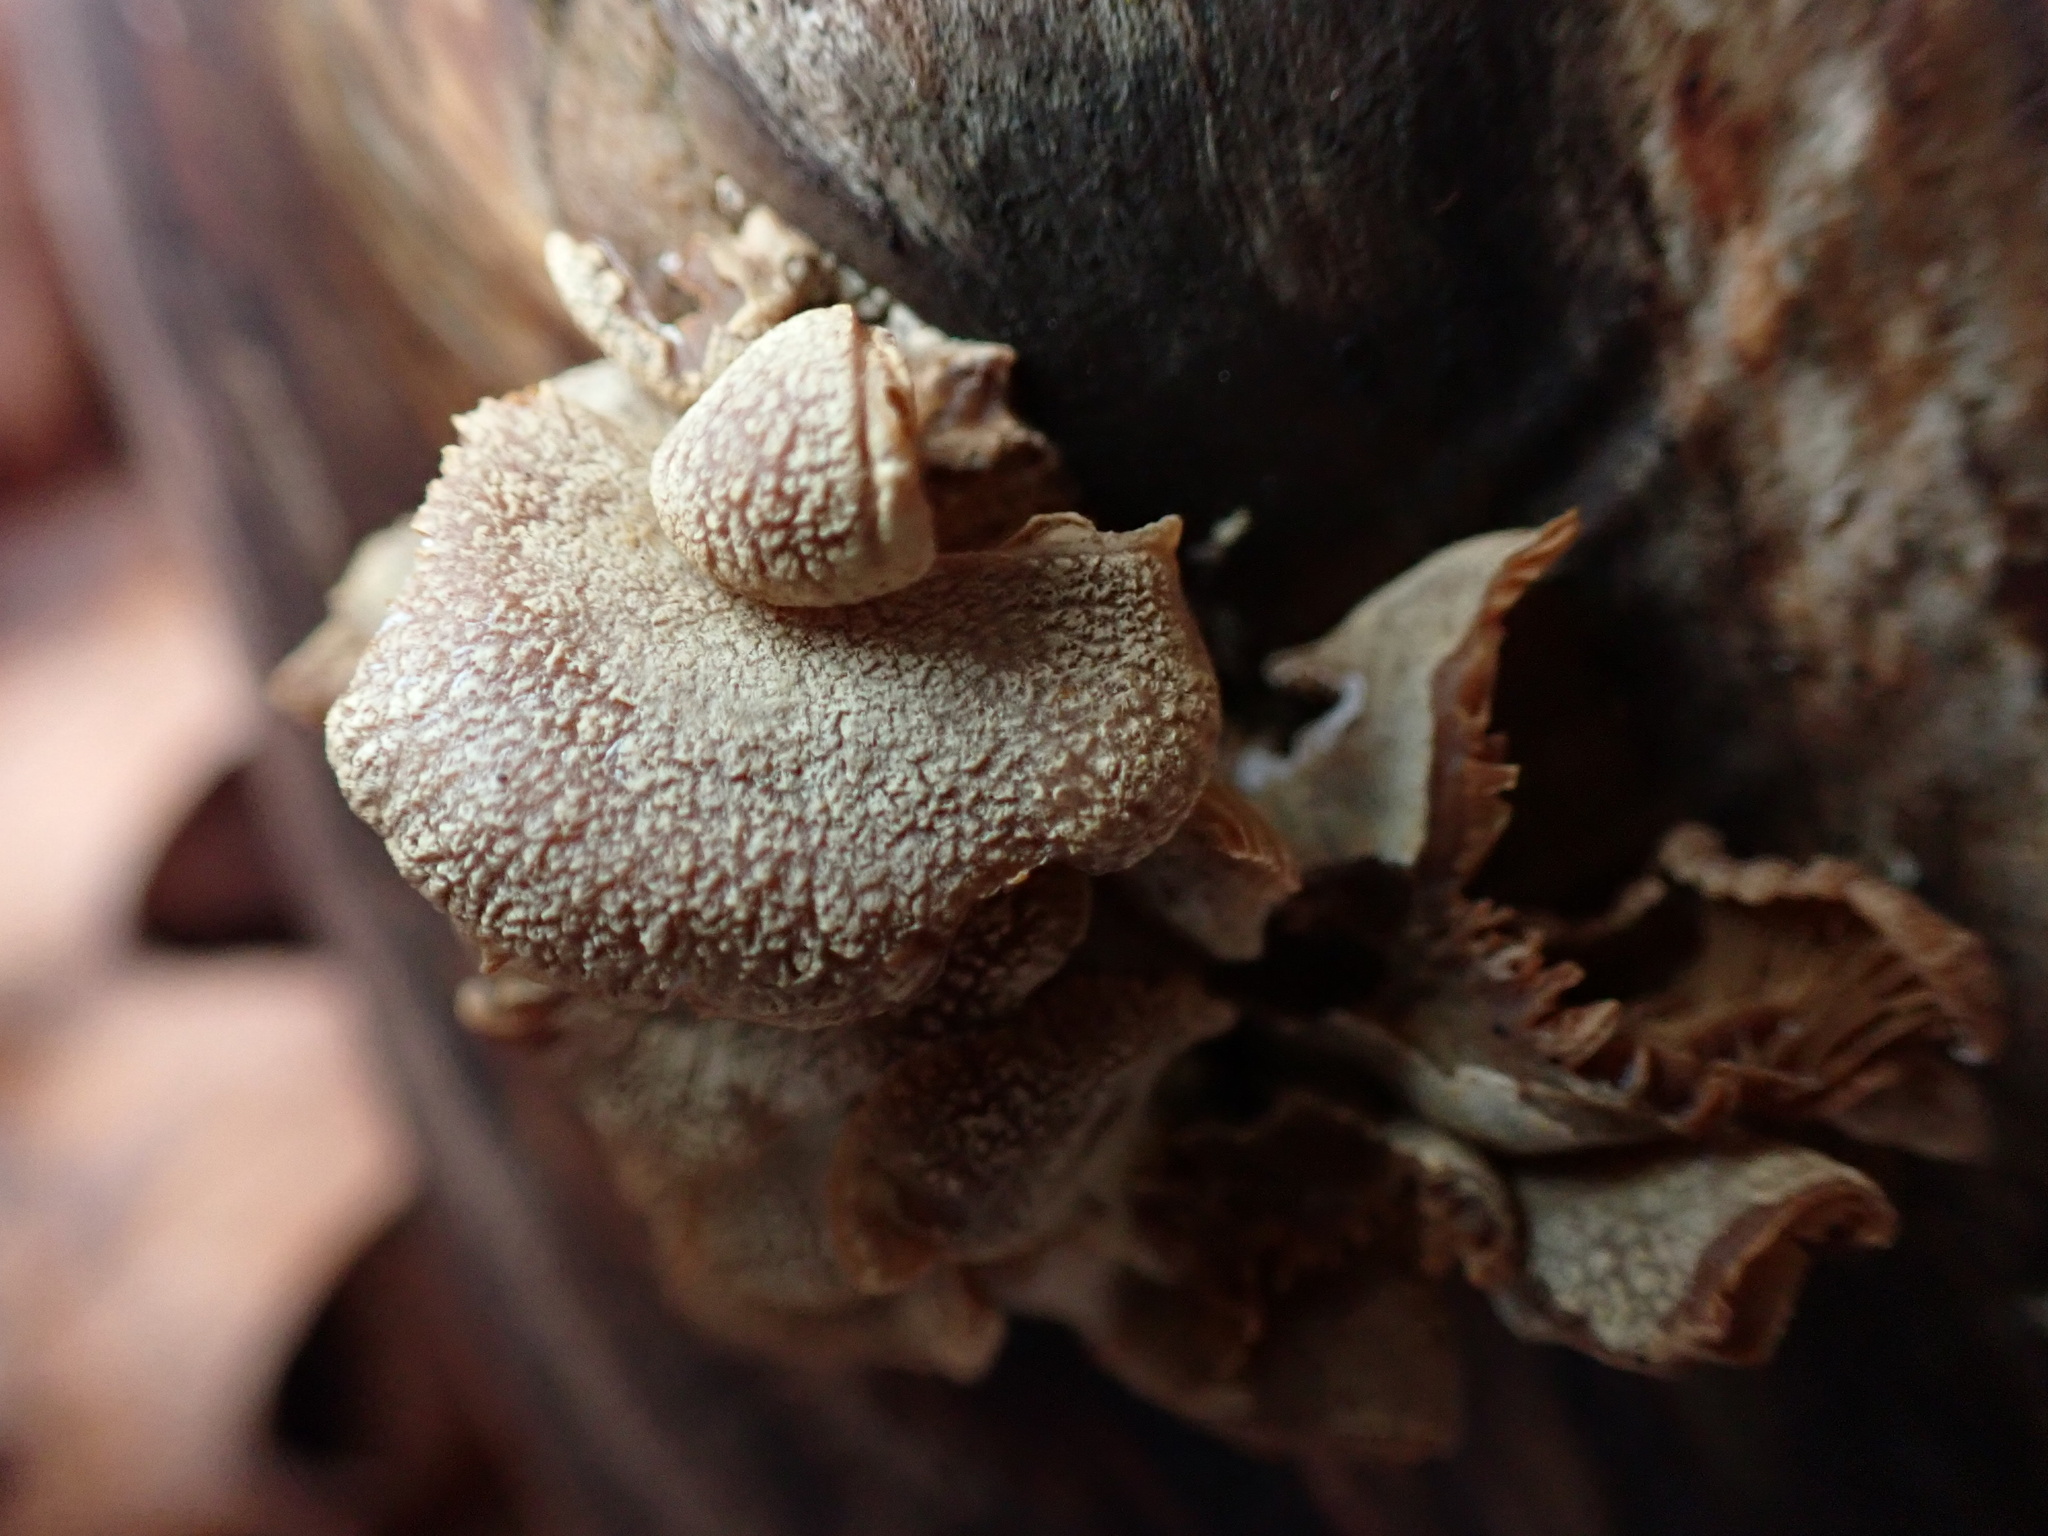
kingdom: Fungi
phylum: Basidiomycota
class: Agaricomycetes
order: Agaricales
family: Mycenaceae
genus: Panellus
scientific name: Panellus stipticus
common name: Bitter oysterling
